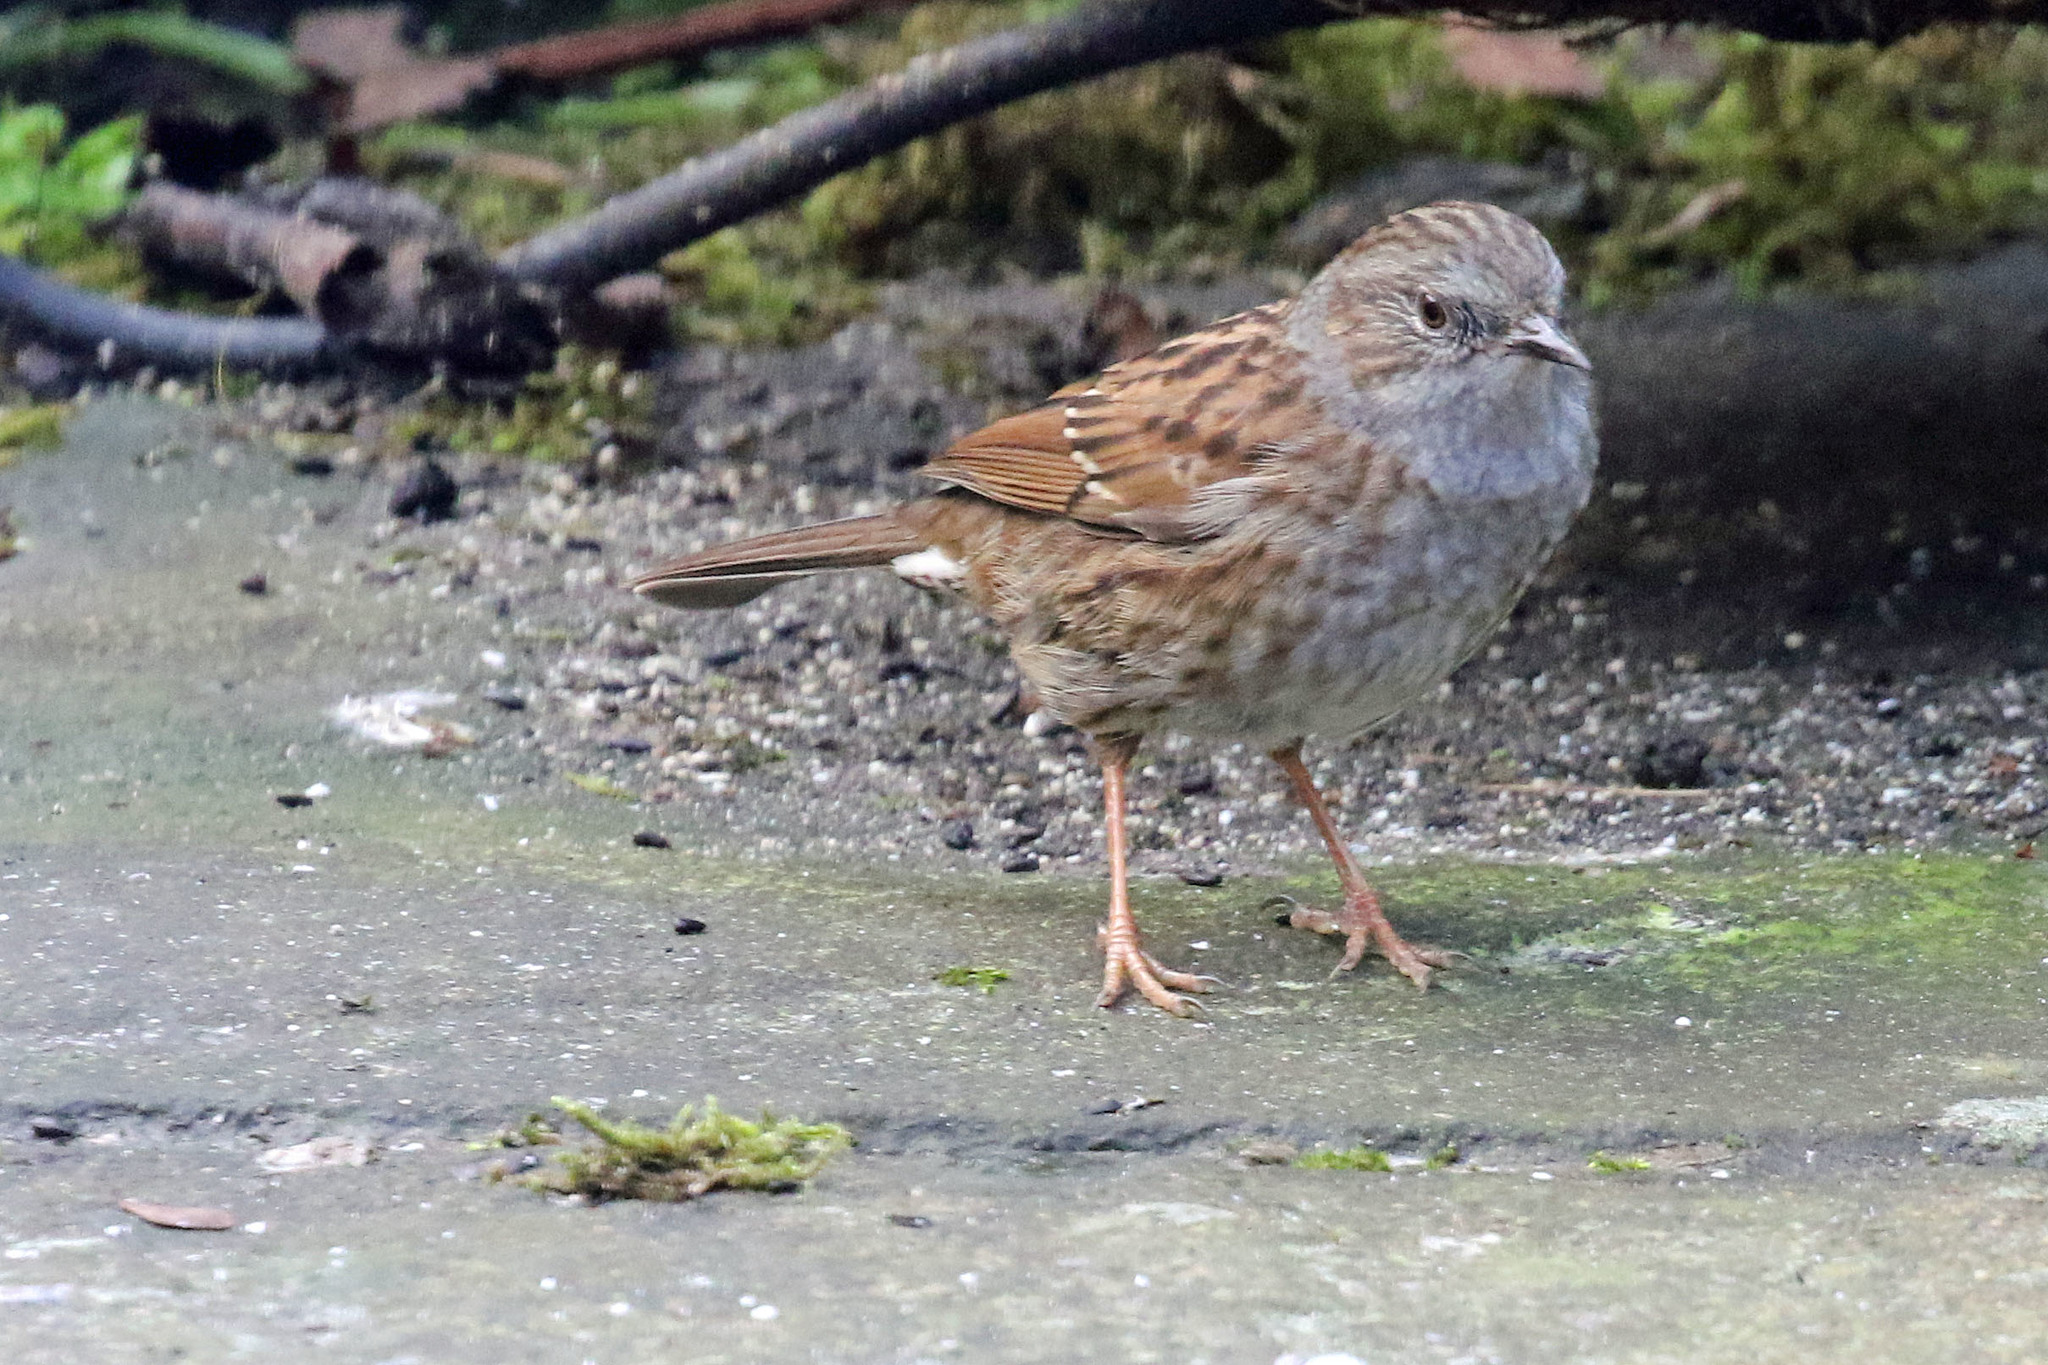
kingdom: Animalia
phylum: Chordata
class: Aves
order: Passeriformes
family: Prunellidae
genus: Prunella
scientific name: Prunella modularis
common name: Dunnock
